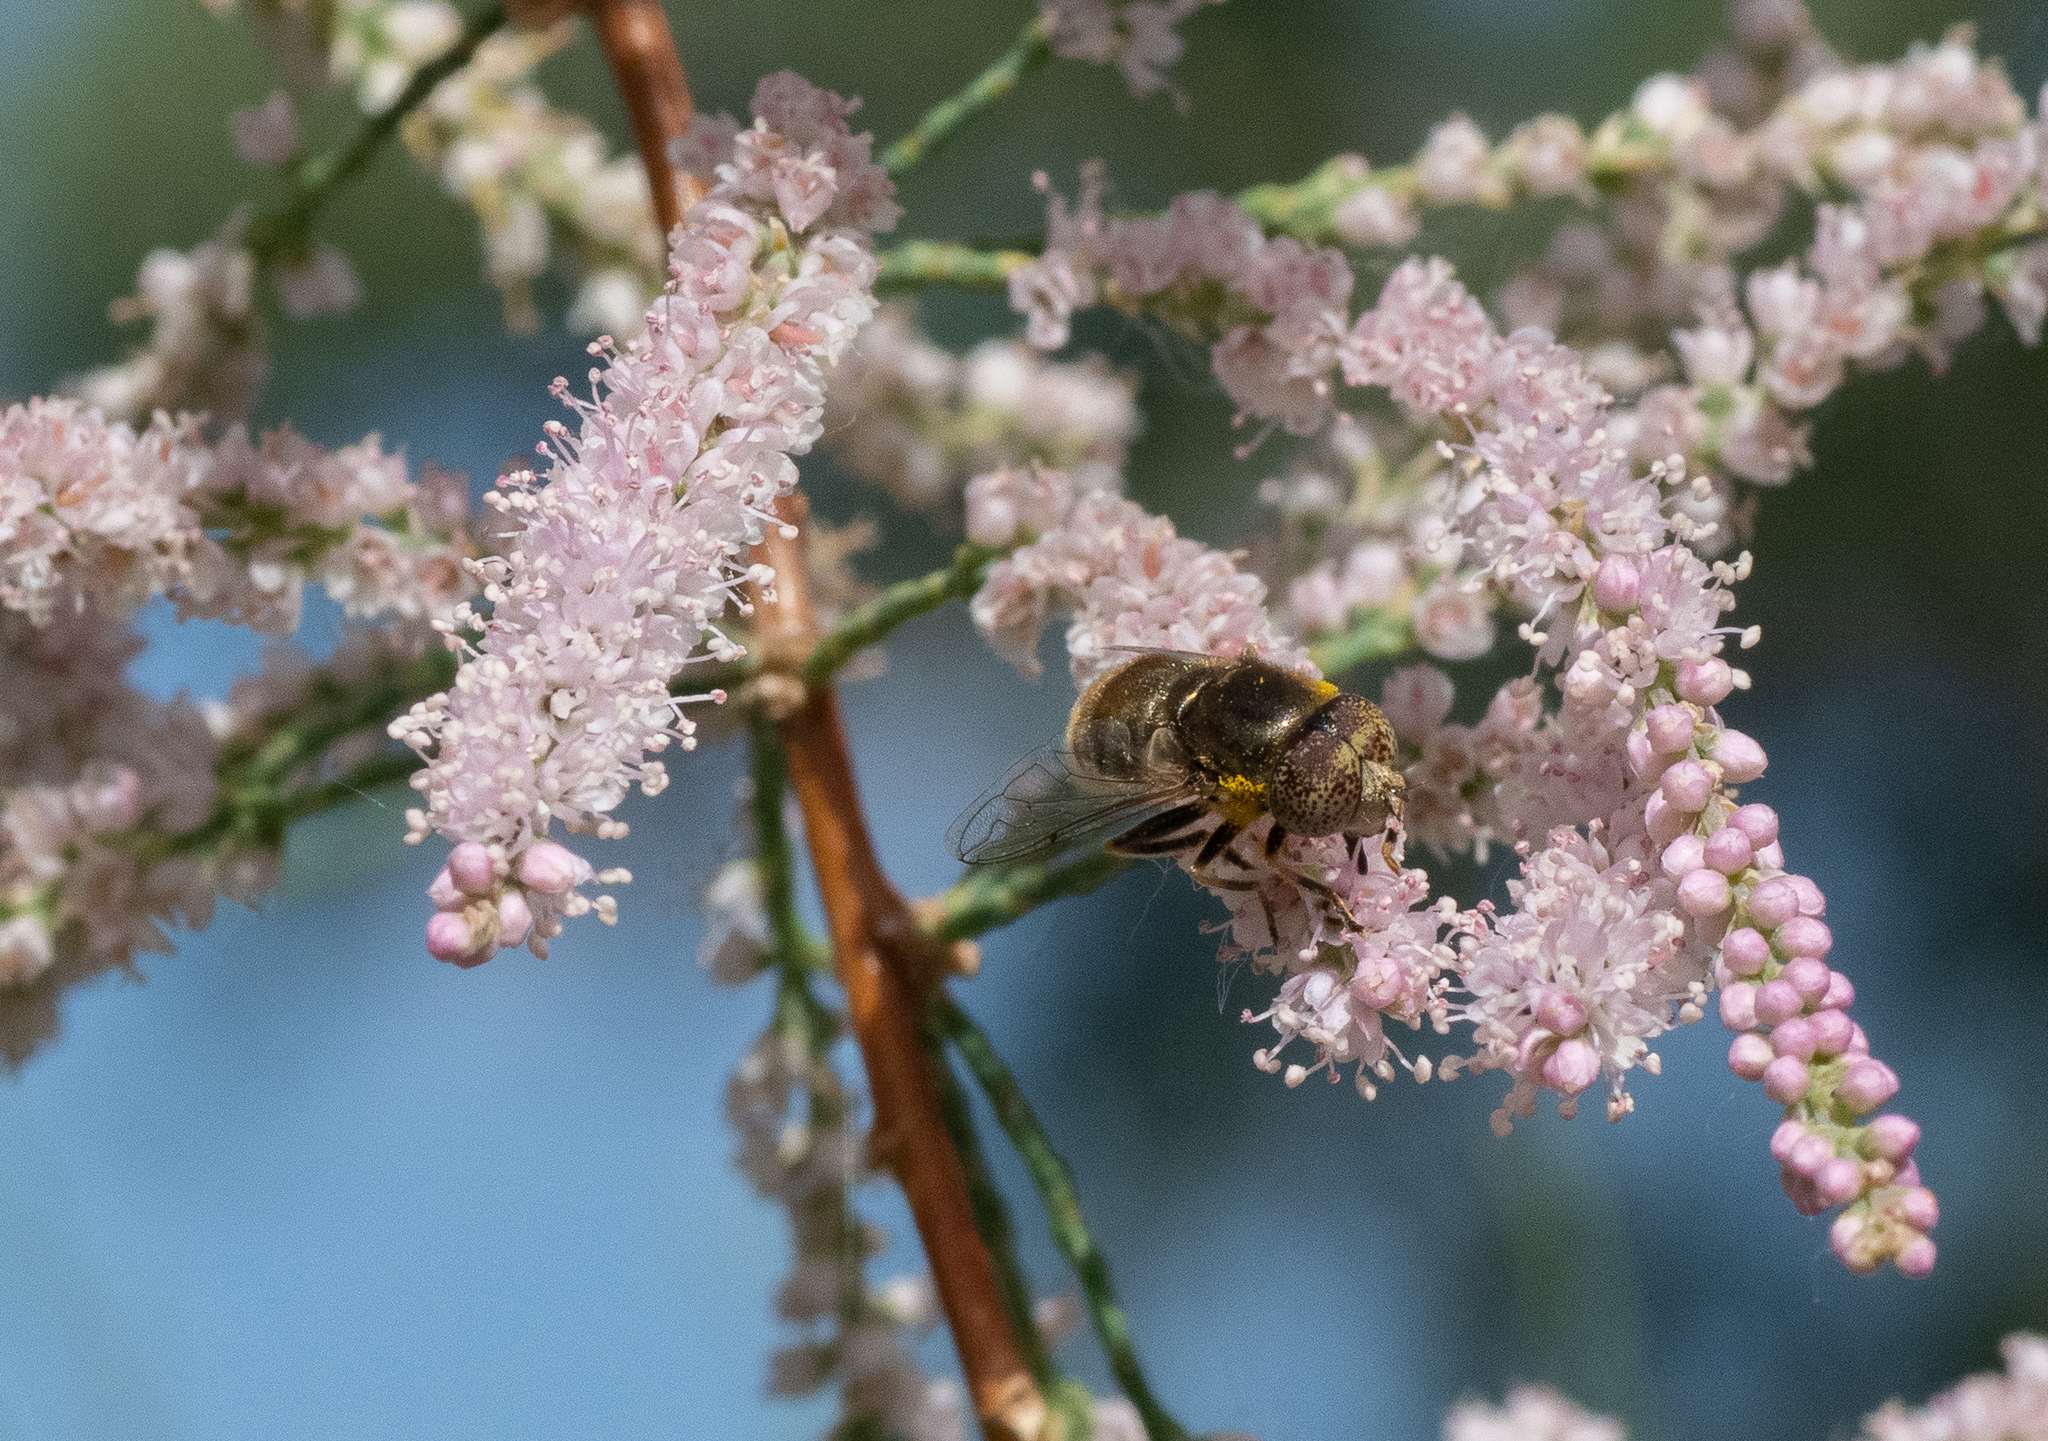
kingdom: Animalia
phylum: Arthropoda
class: Insecta
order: Diptera
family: Syrphidae
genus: Eristalinus
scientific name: Eristalinus aeneus
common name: Syrphid fly
